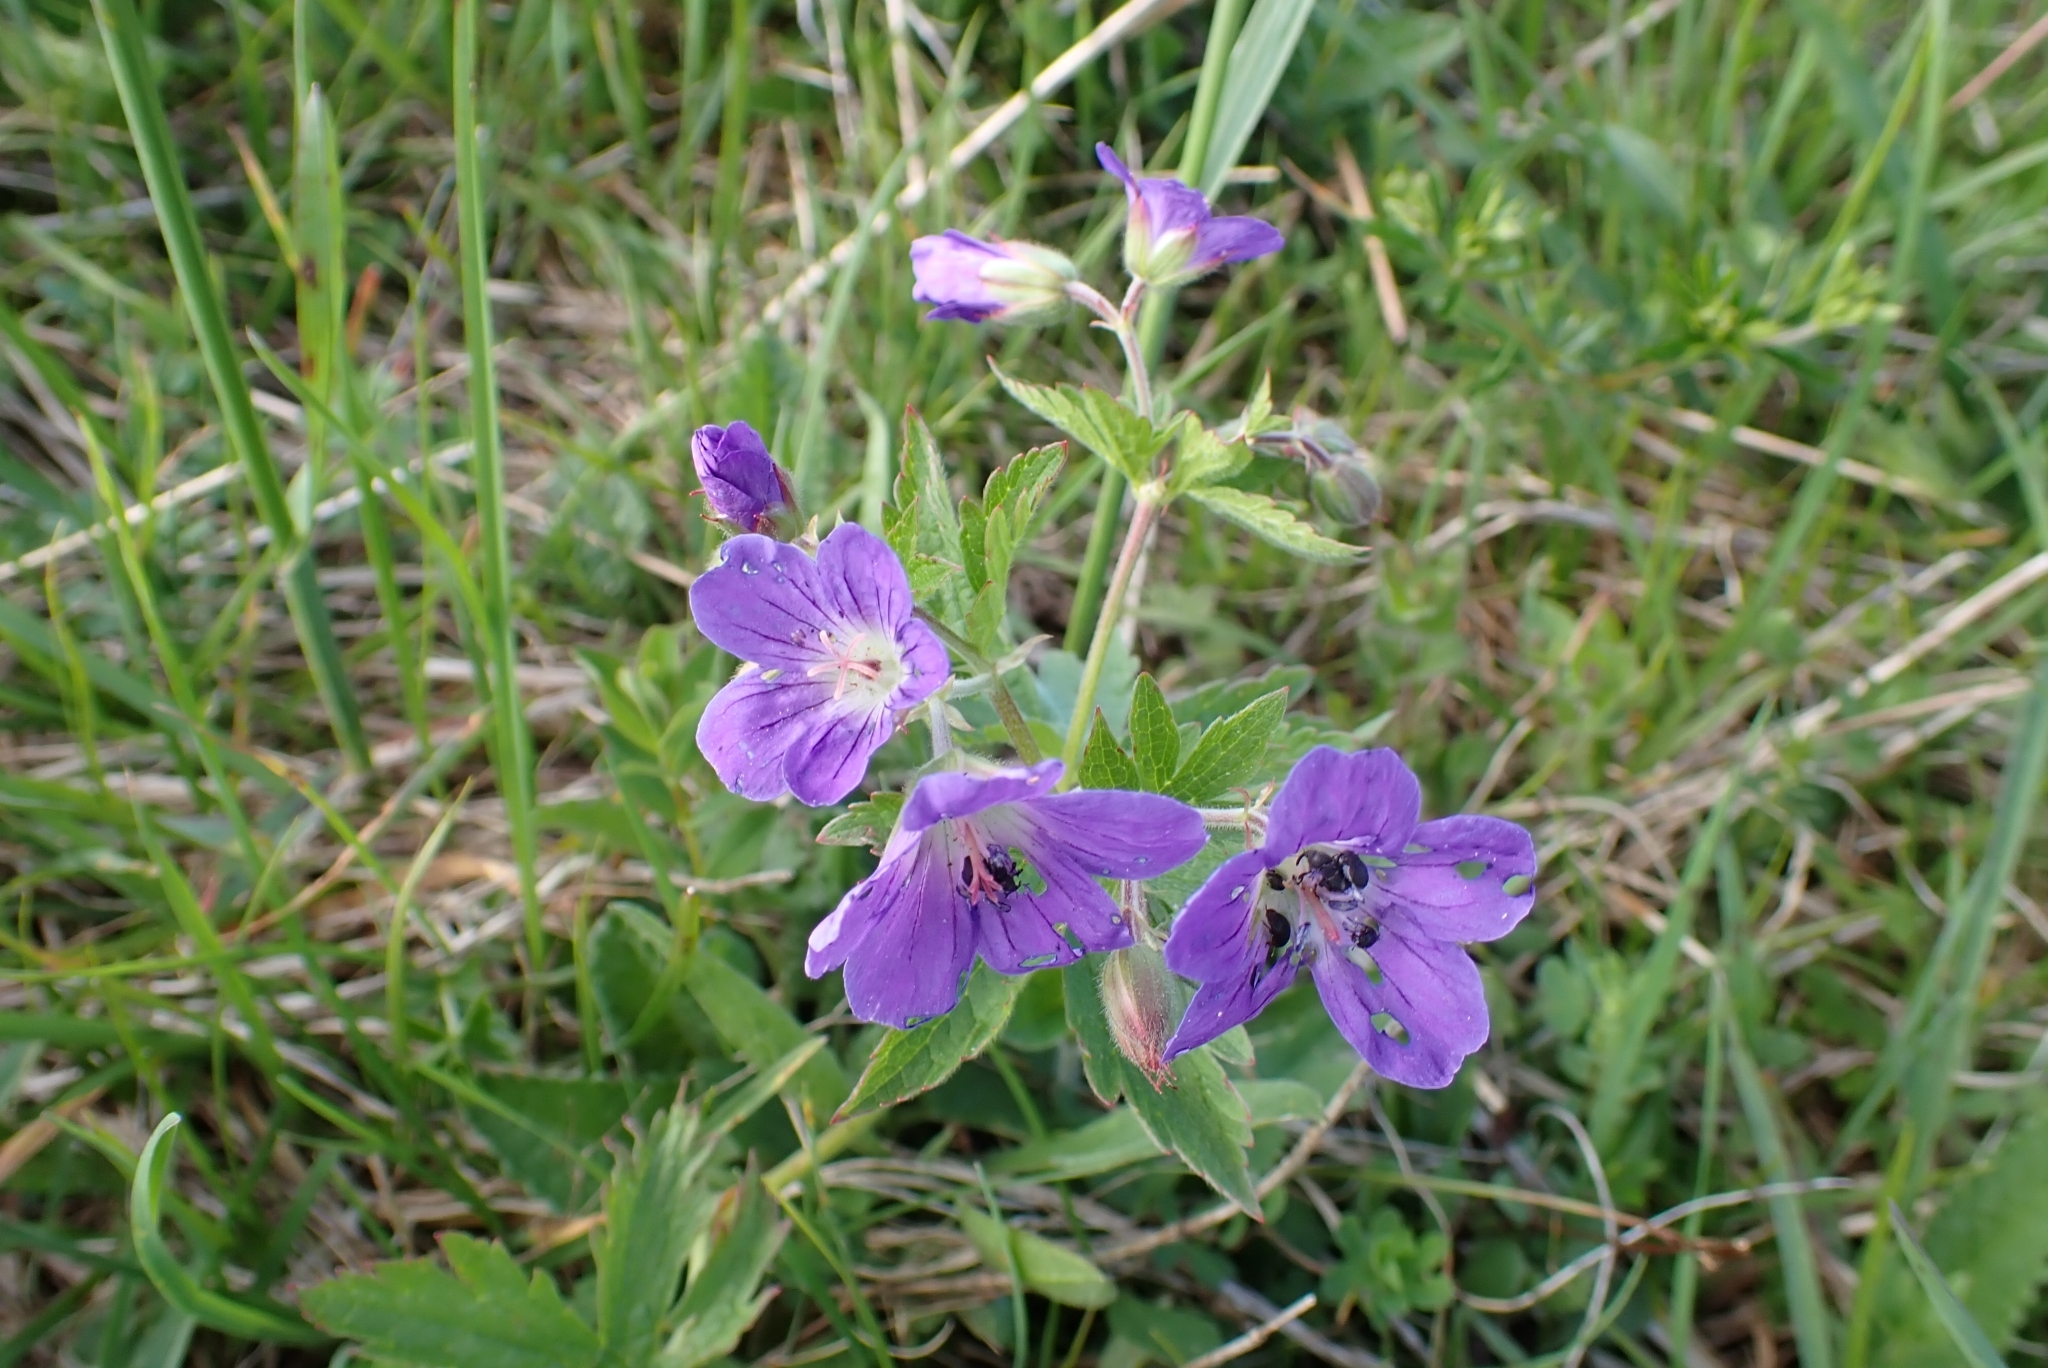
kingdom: Plantae
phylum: Tracheophyta
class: Magnoliopsida
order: Geraniales
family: Geraniaceae
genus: Geranium
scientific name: Geranium sylvaticum
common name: Wood crane's-bill
